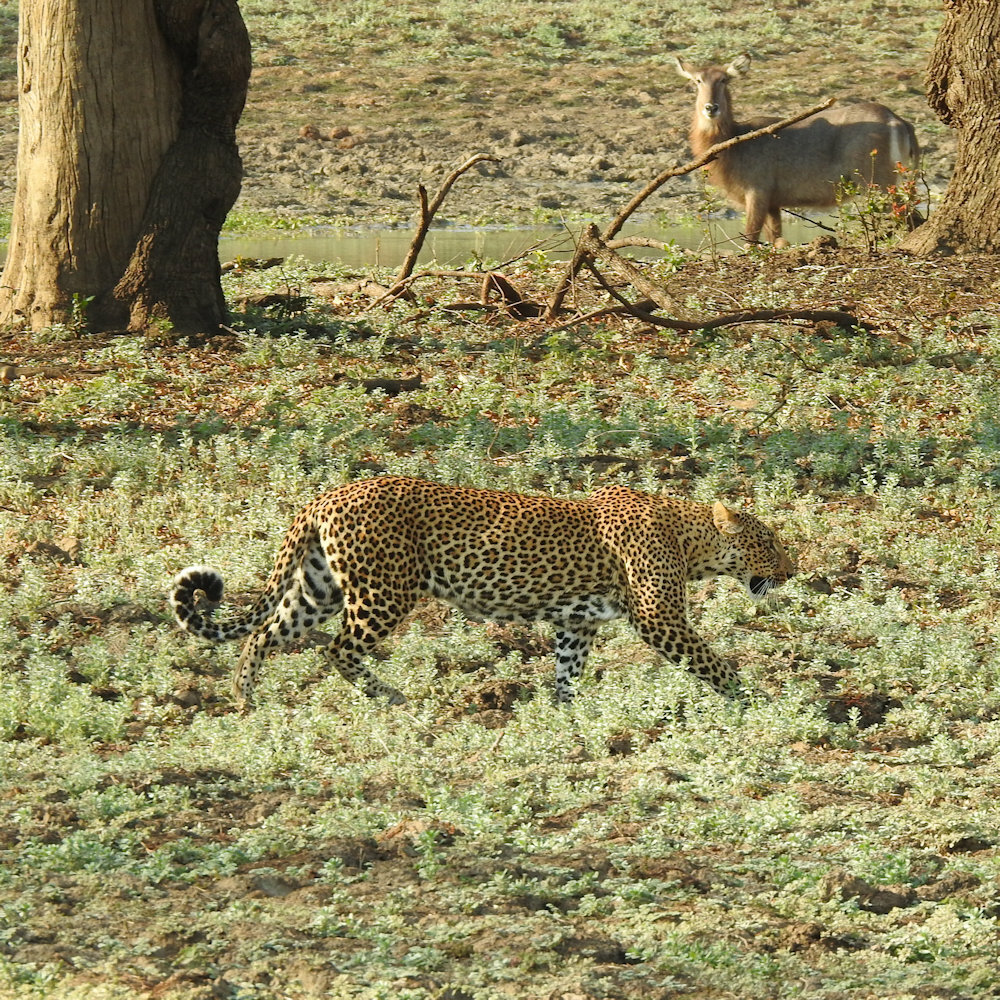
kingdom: Animalia
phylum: Chordata
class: Mammalia
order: Carnivora
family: Felidae
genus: Panthera
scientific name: Panthera pardus
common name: Leopard
